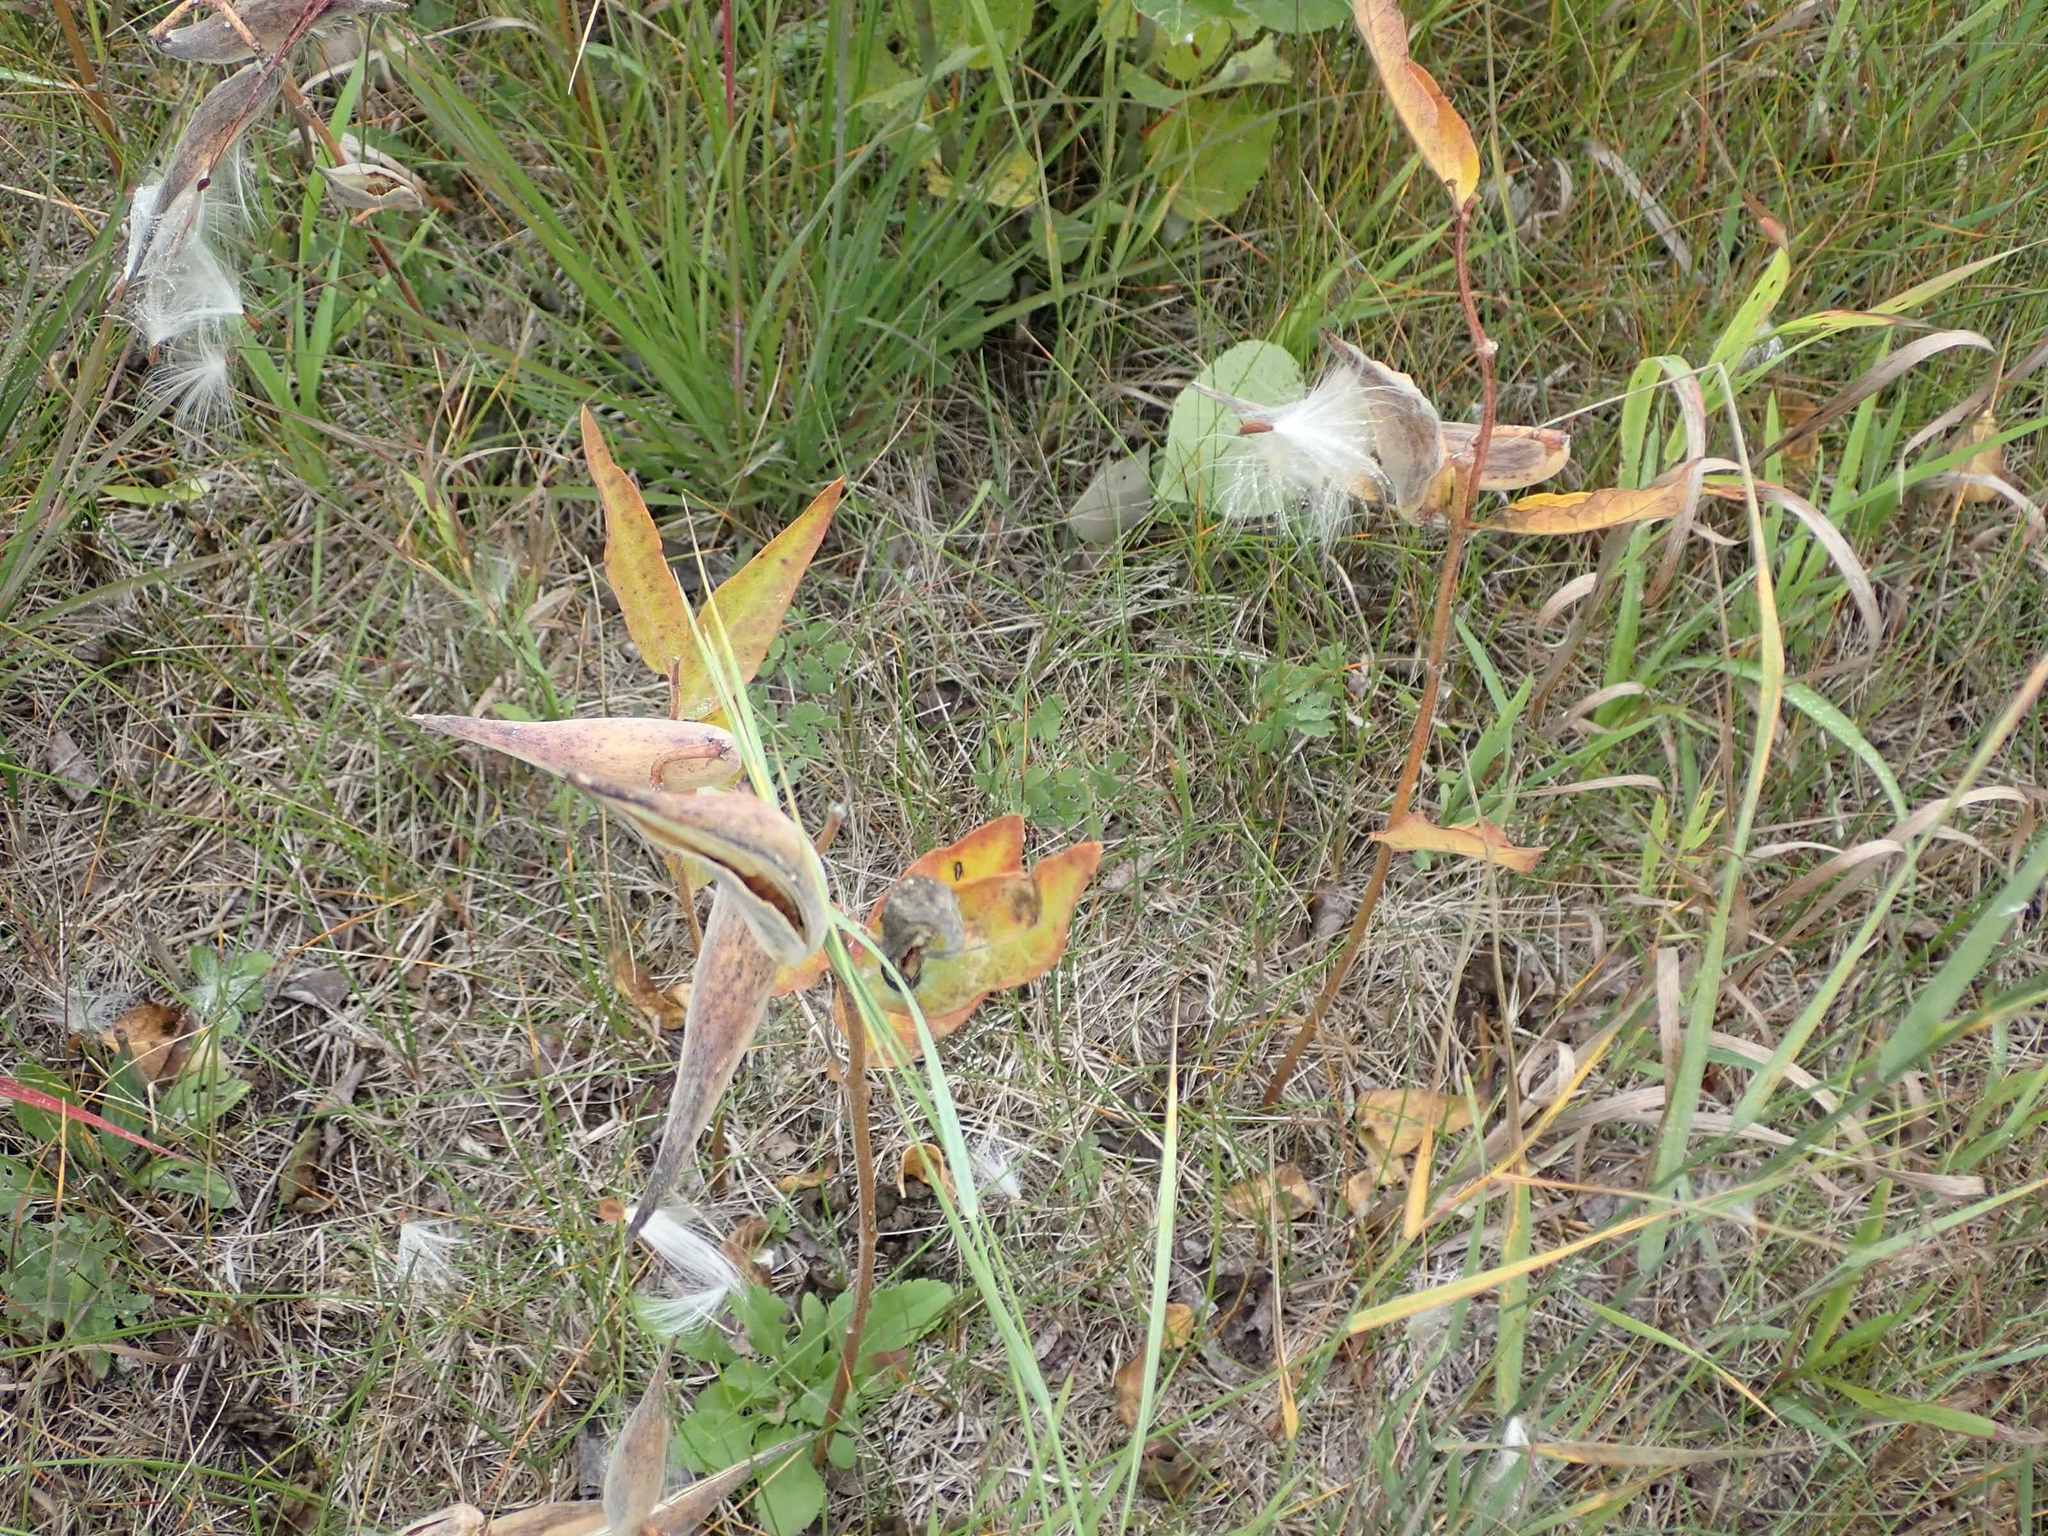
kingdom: Plantae
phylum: Tracheophyta
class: Magnoliopsida
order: Gentianales
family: Apocynaceae
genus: Asclepias
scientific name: Asclepias ovalifolia
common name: Dwarf milkweed
